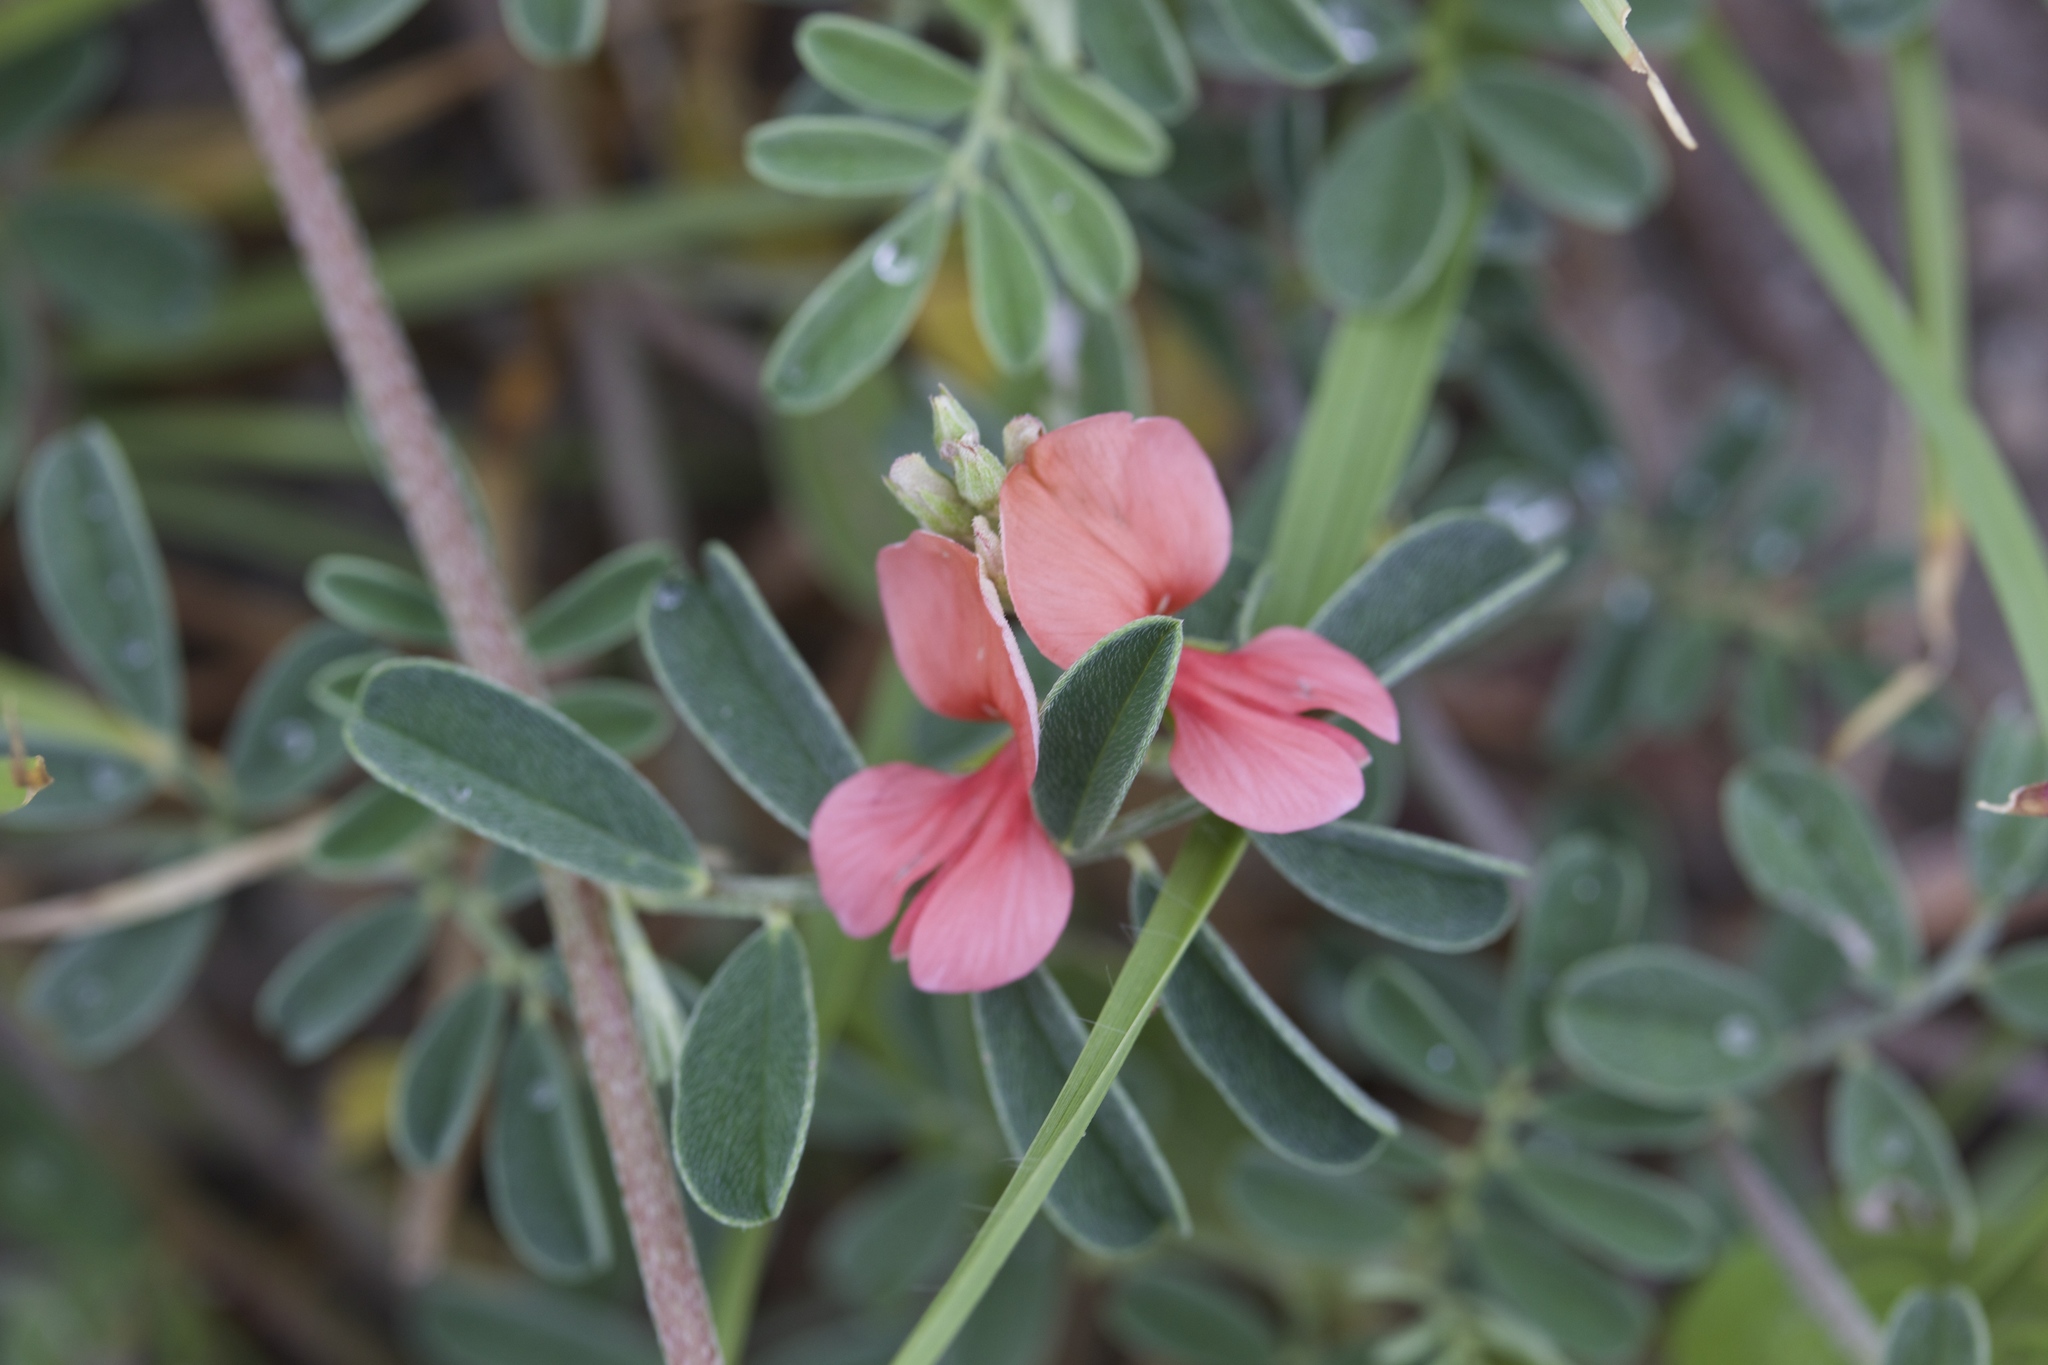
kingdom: Plantae
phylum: Tracheophyta
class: Magnoliopsida
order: Fabales
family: Fabaceae
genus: Indigofera
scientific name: Indigofera miniata
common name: Coast indigo
